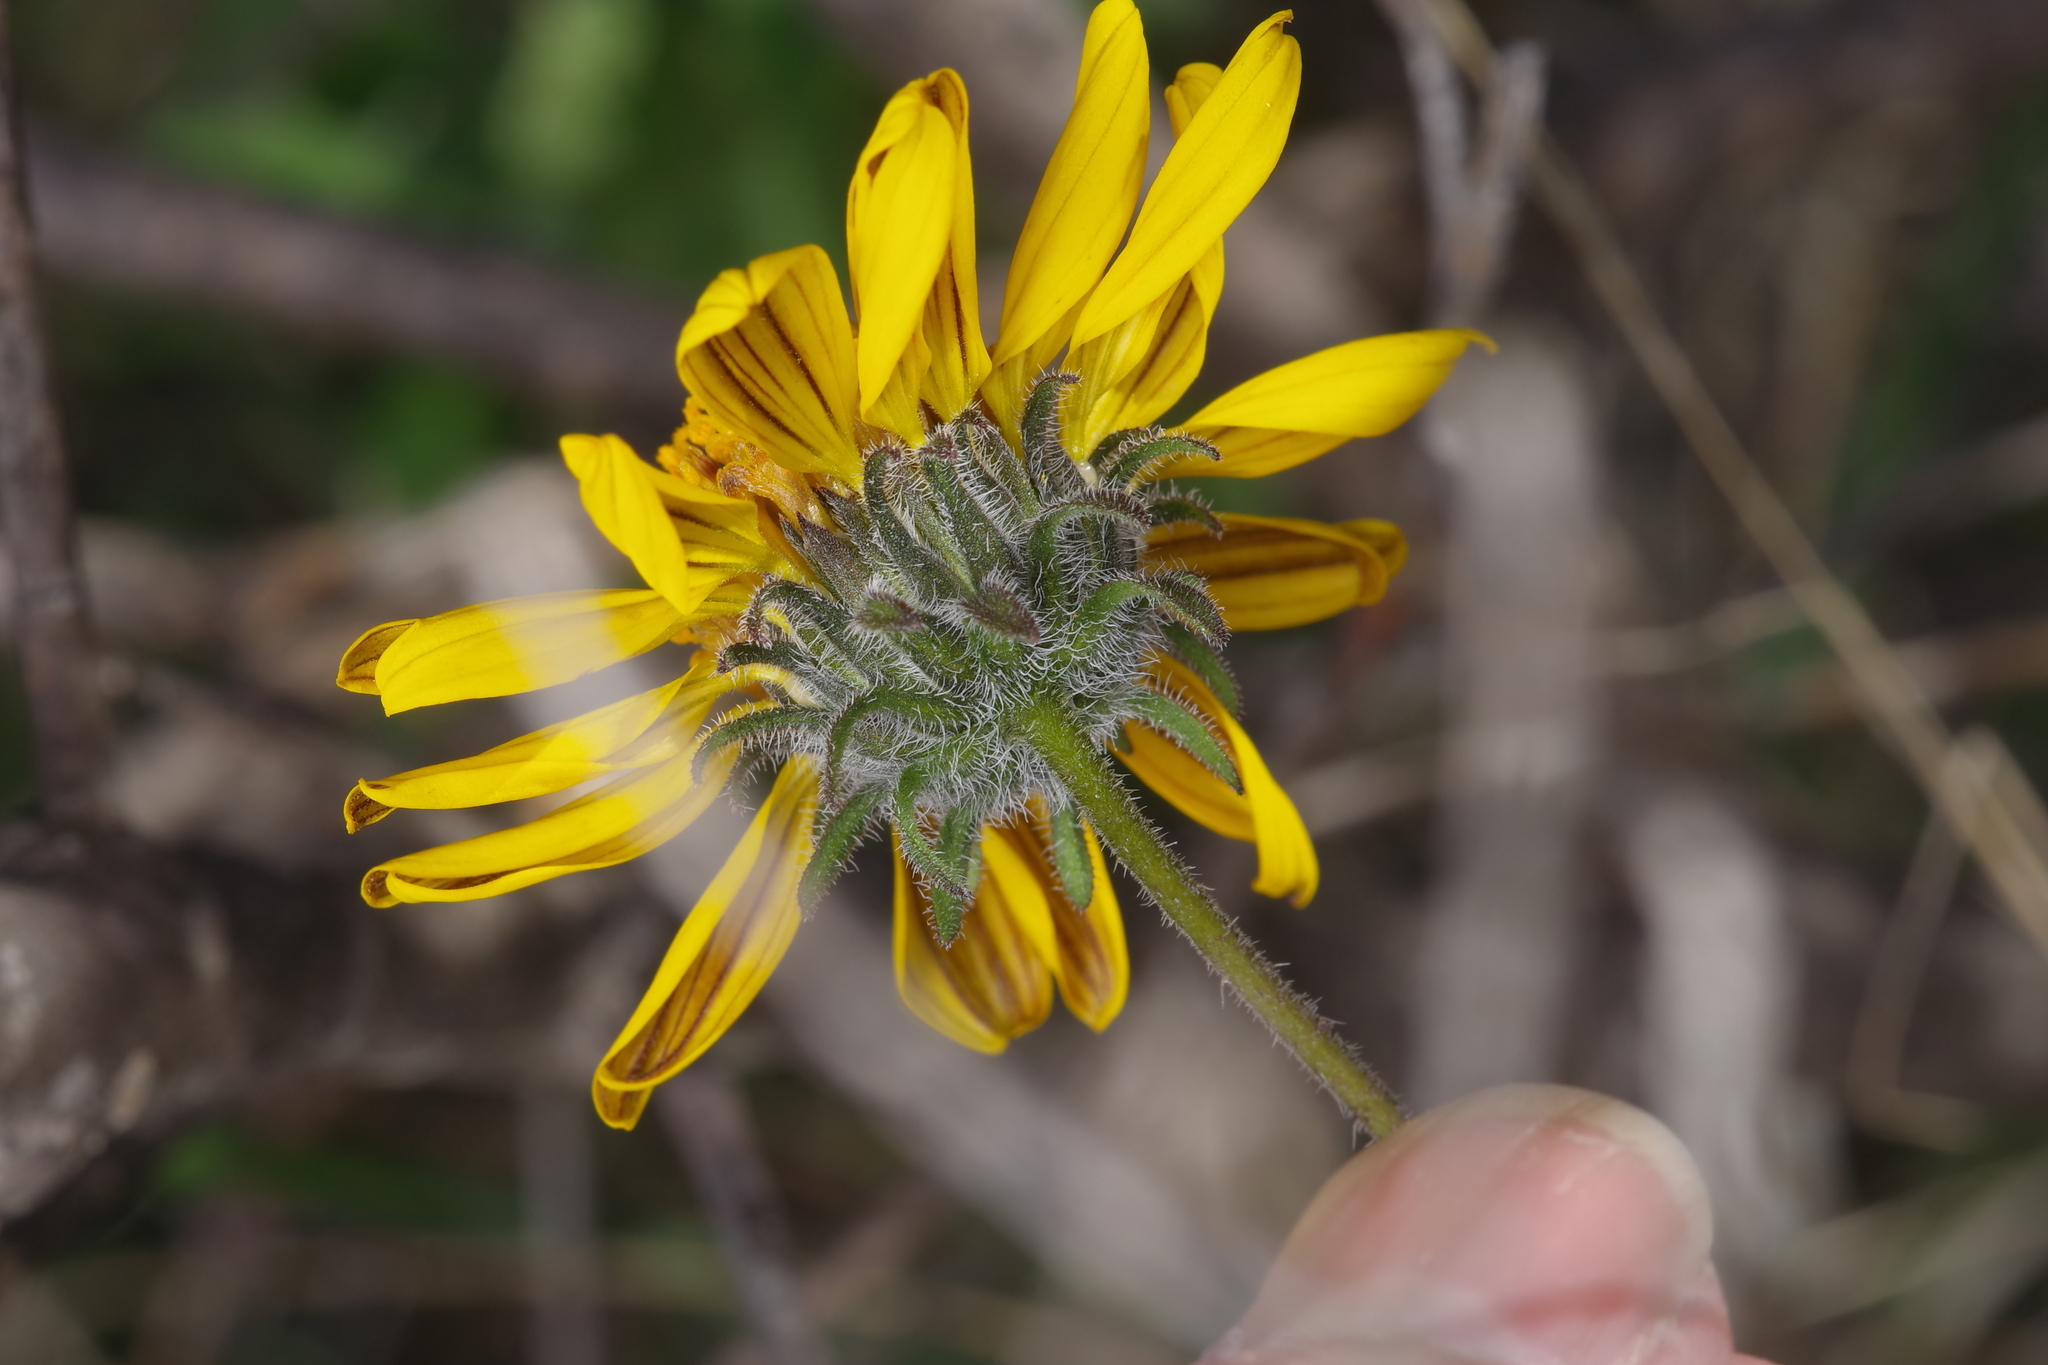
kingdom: Plantae
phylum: Tracheophyta
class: Magnoliopsida
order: Asterales
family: Asteraceae
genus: Simsia
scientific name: Simsia calva
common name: Awnless bush-sunflower
